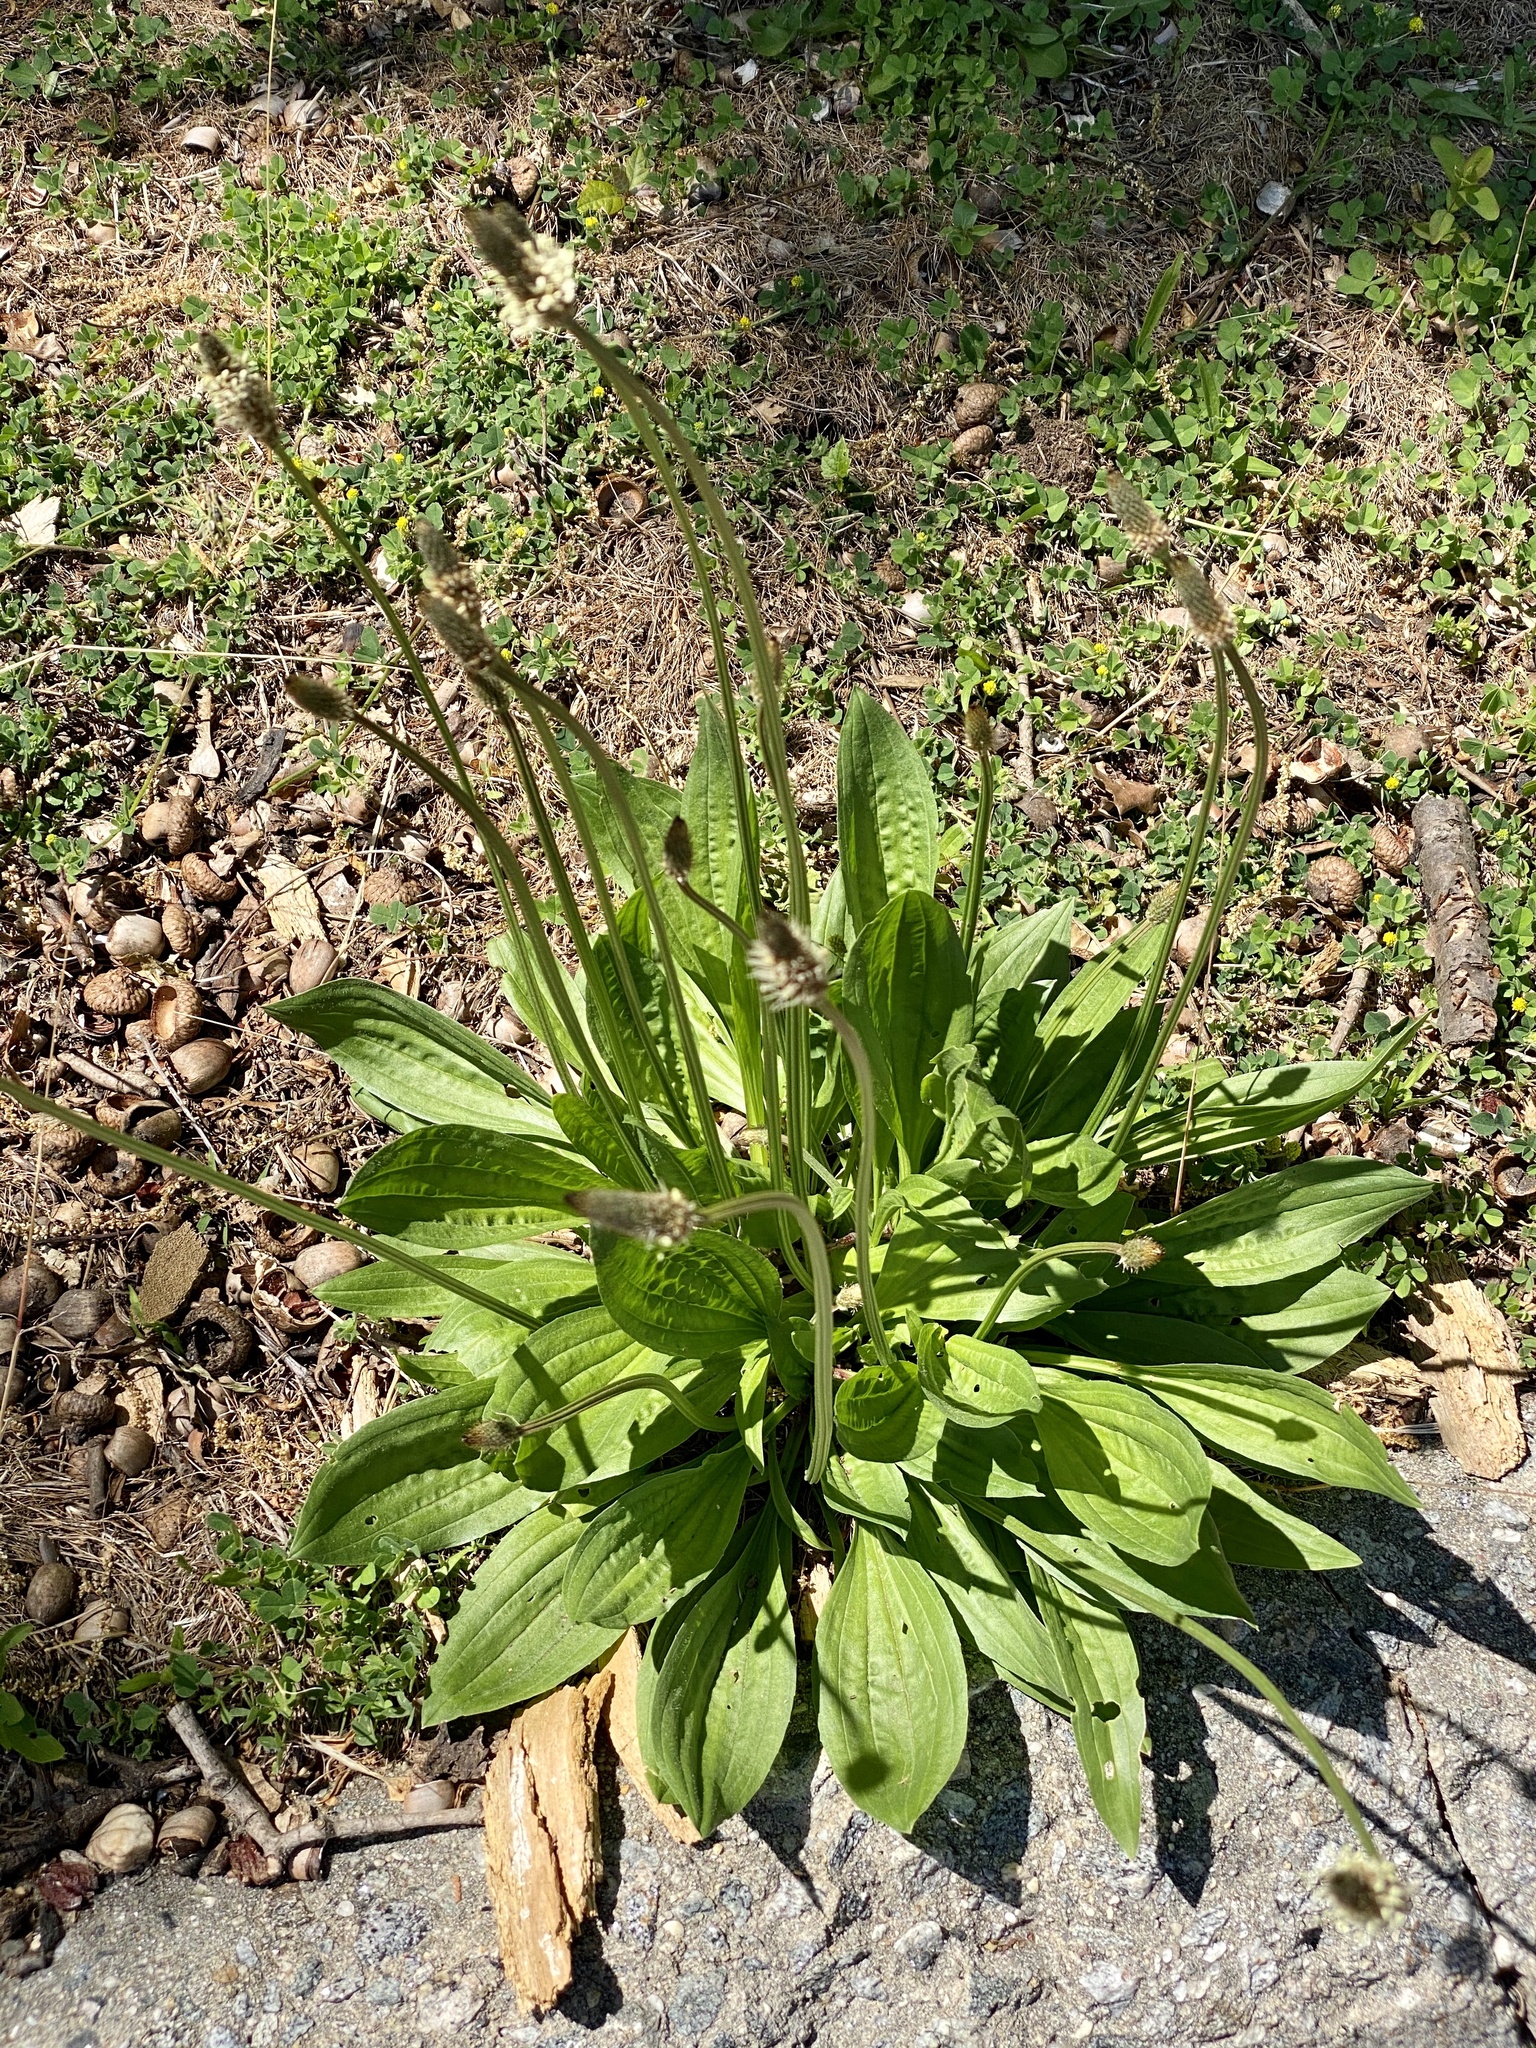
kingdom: Plantae
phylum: Tracheophyta
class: Magnoliopsida
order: Lamiales
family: Plantaginaceae
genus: Plantago
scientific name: Plantago lanceolata
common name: Ribwort plantain
